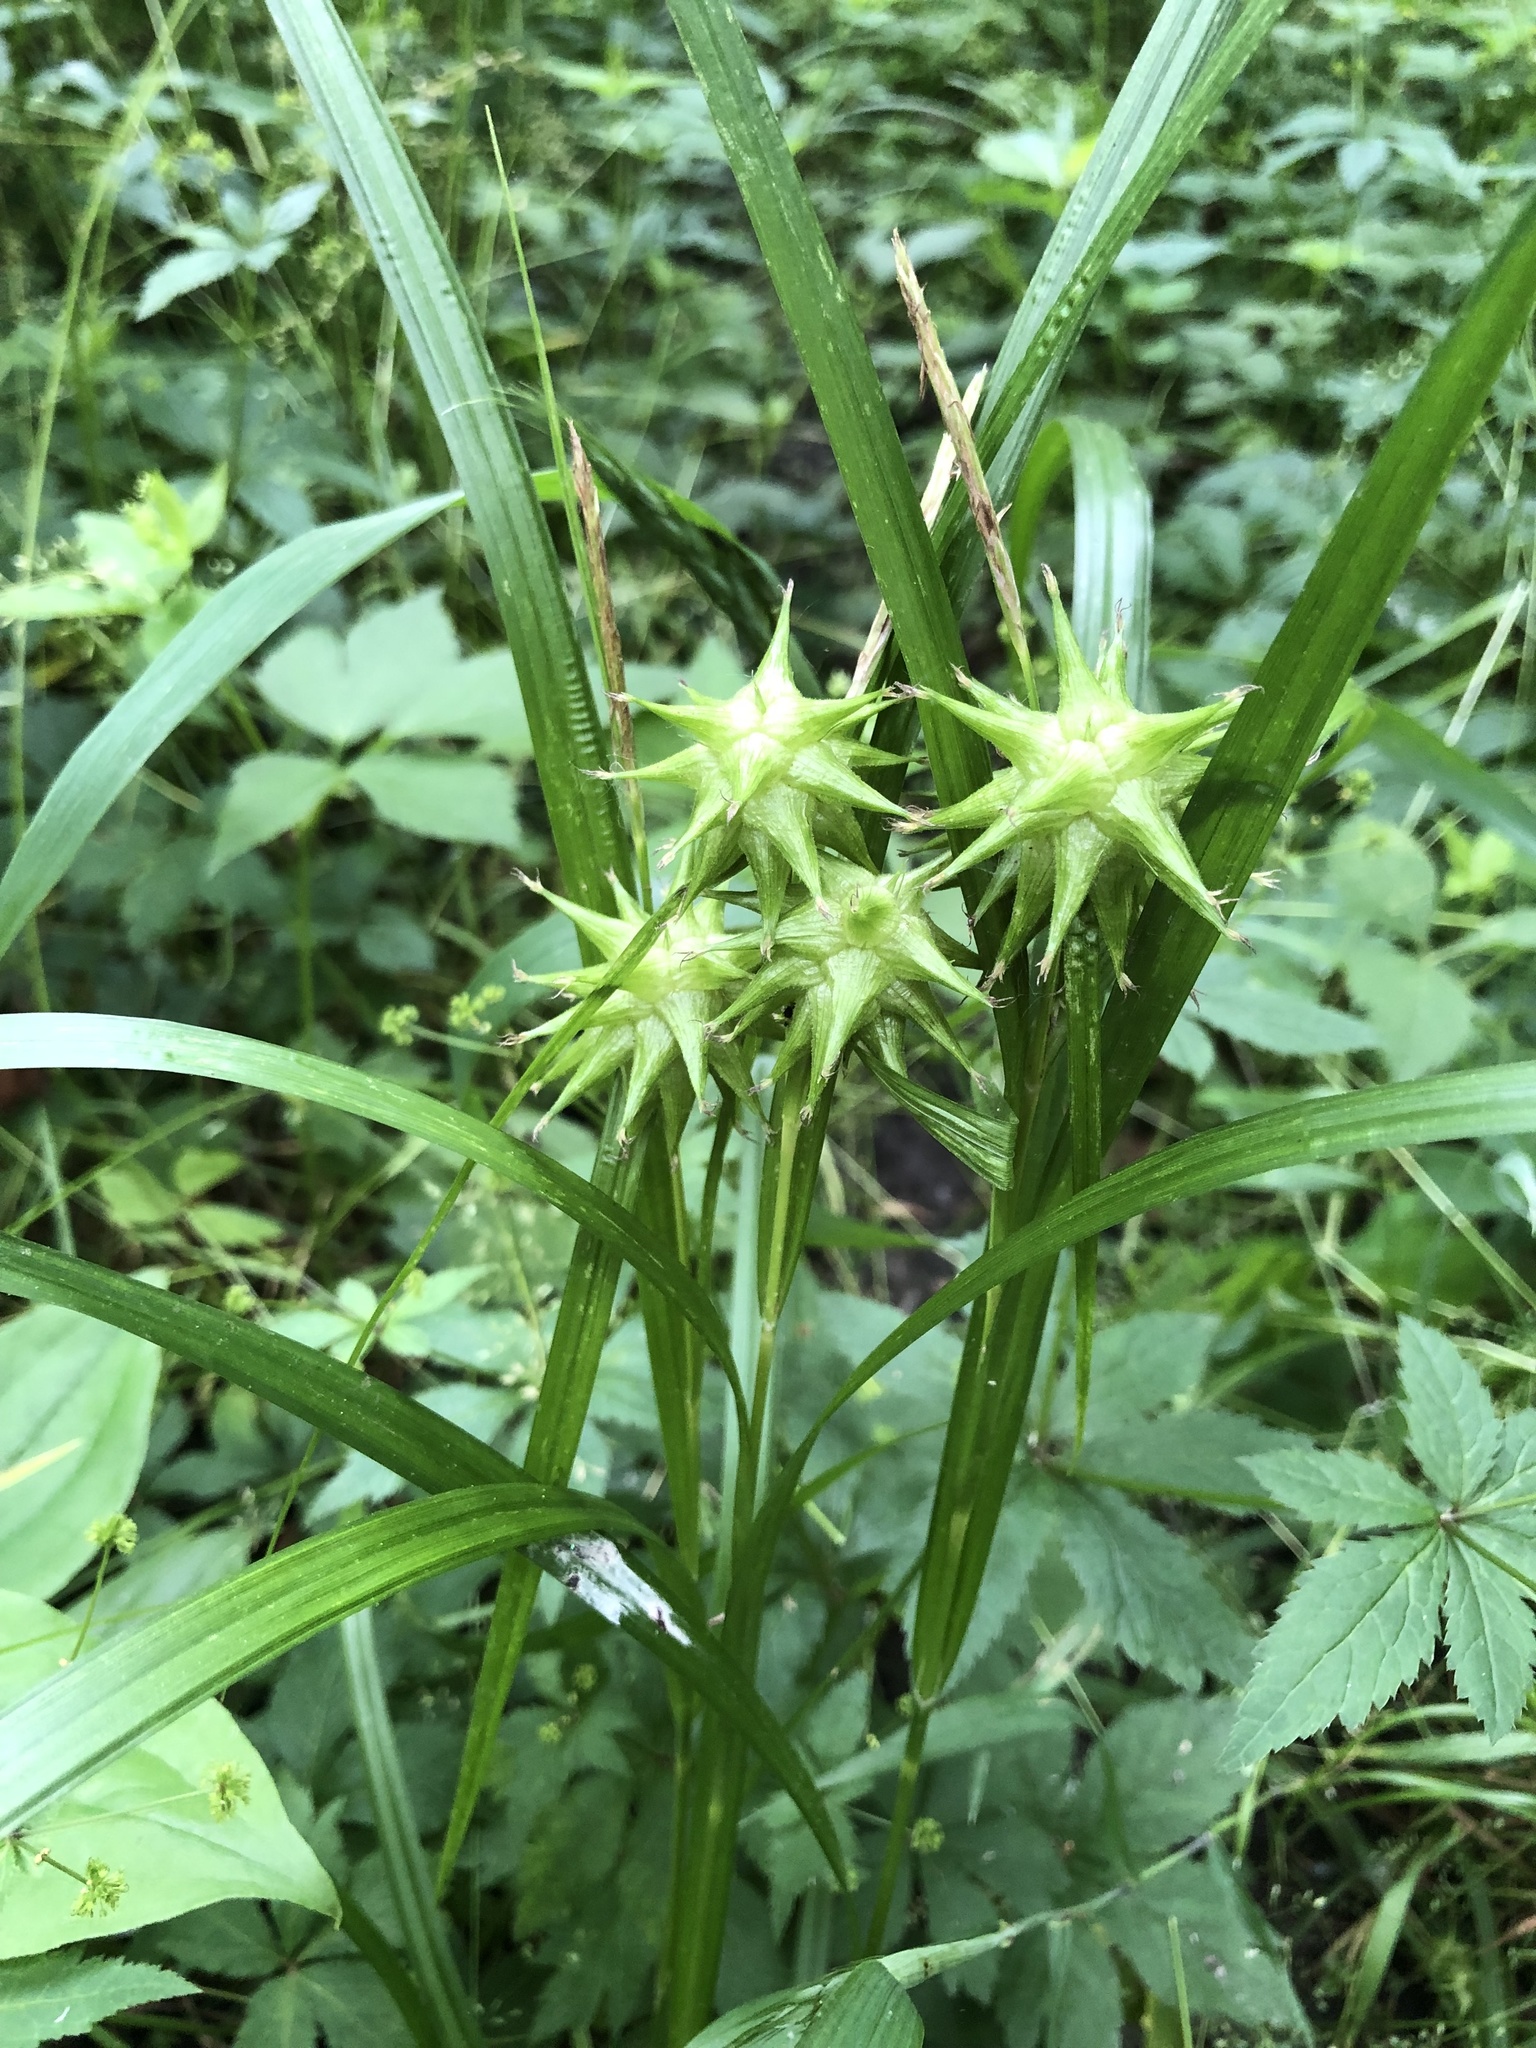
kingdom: Plantae
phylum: Tracheophyta
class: Liliopsida
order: Poales
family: Cyperaceae
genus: Carex
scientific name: Carex grayi
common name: Asa gray's sedge
